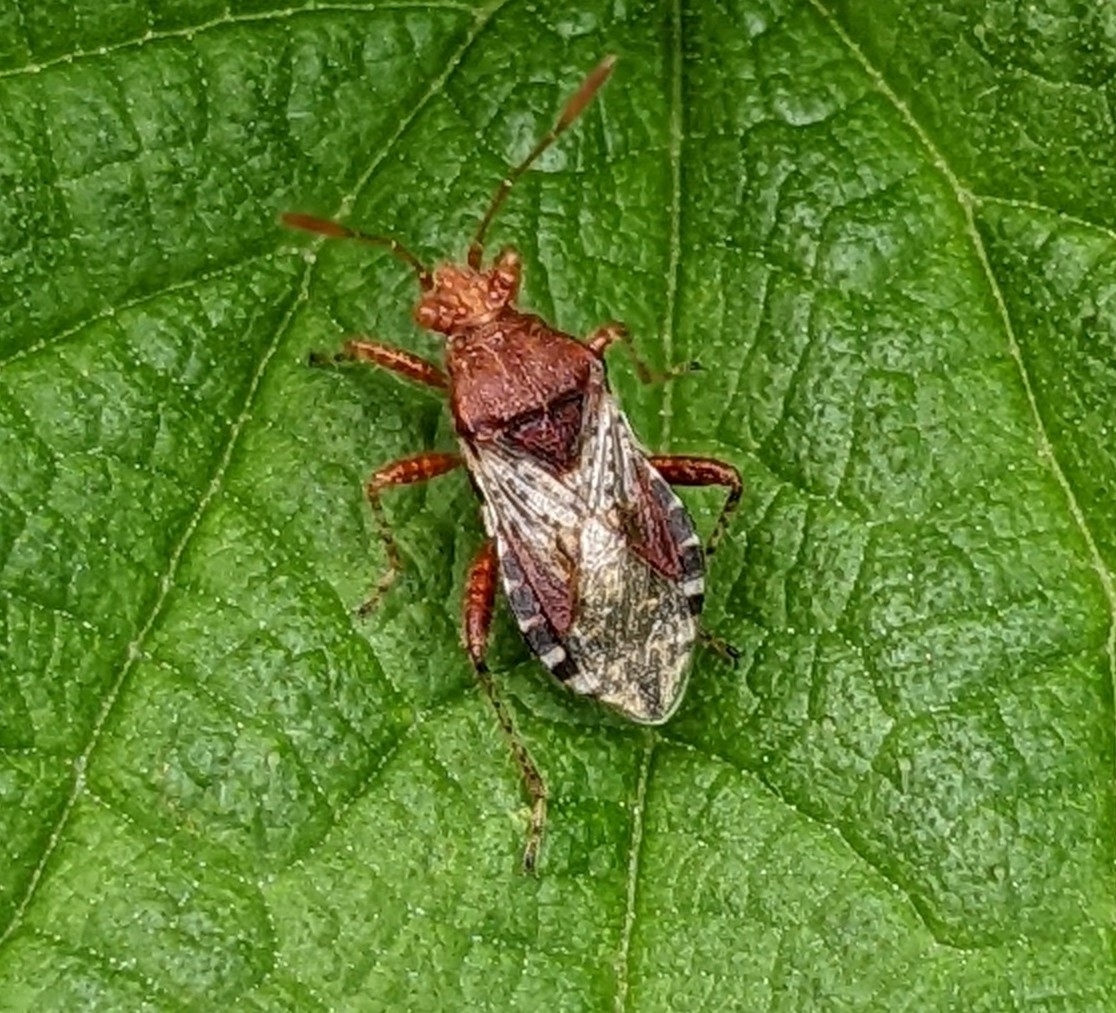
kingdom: Animalia
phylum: Arthropoda
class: Insecta
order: Hemiptera
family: Rhopalidae
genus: Rhopalus
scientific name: Rhopalus subrufus
